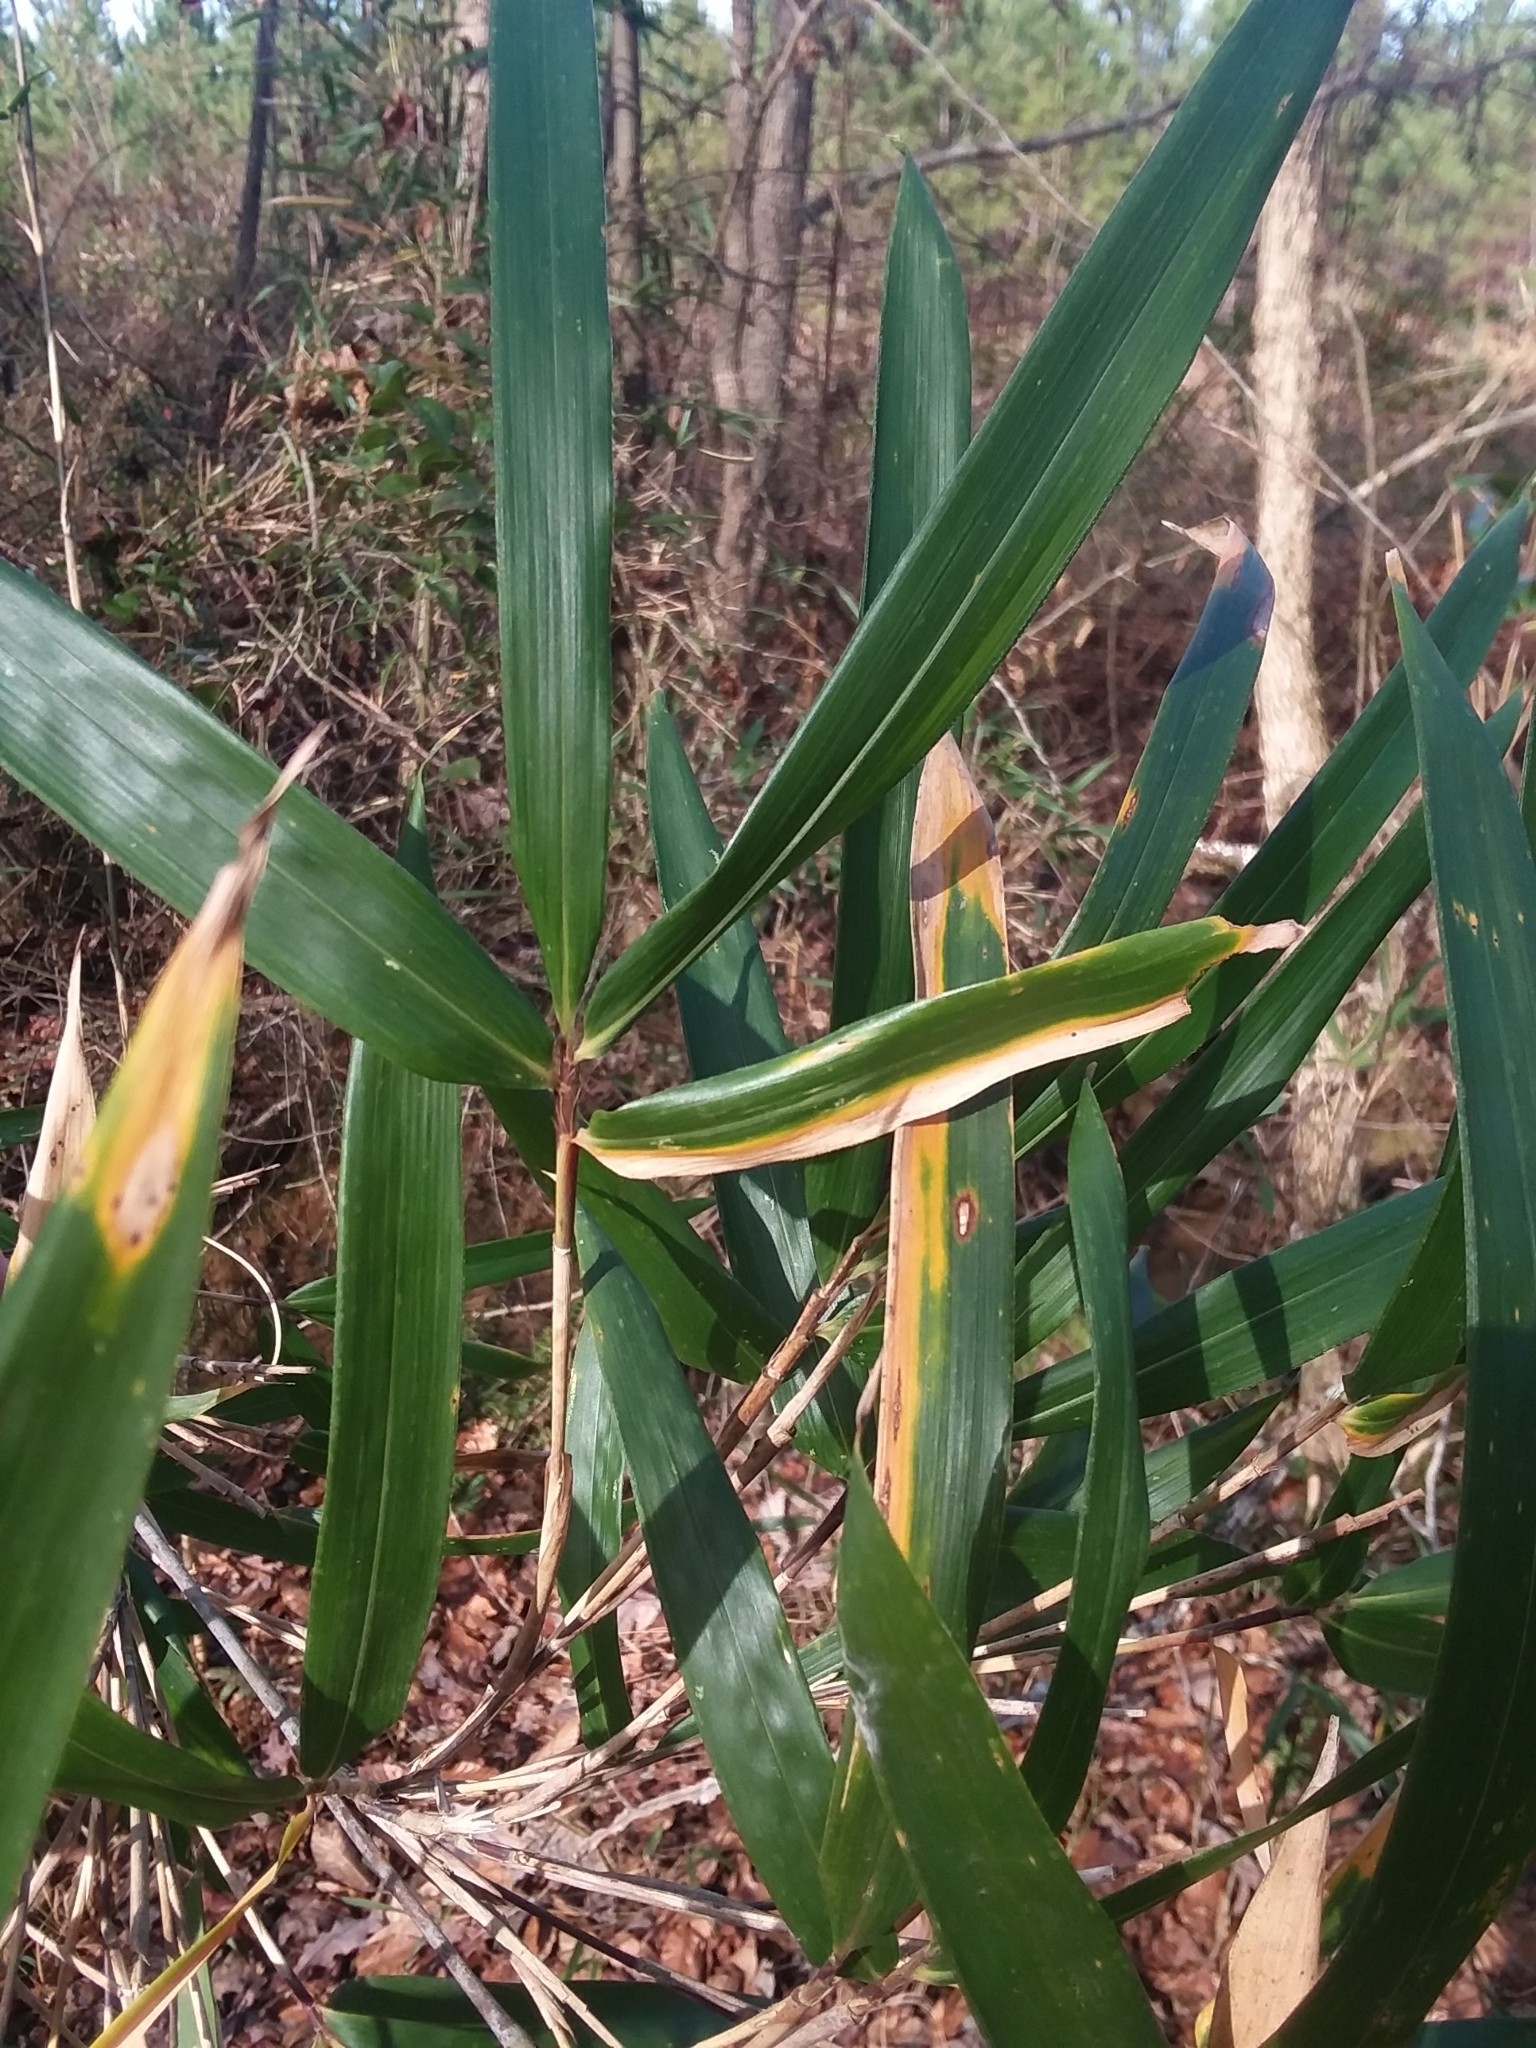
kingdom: Plantae
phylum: Tracheophyta
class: Liliopsida
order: Poales
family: Poaceae
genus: Arundinaria
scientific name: Arundinaria gigantea
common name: Giant cane
